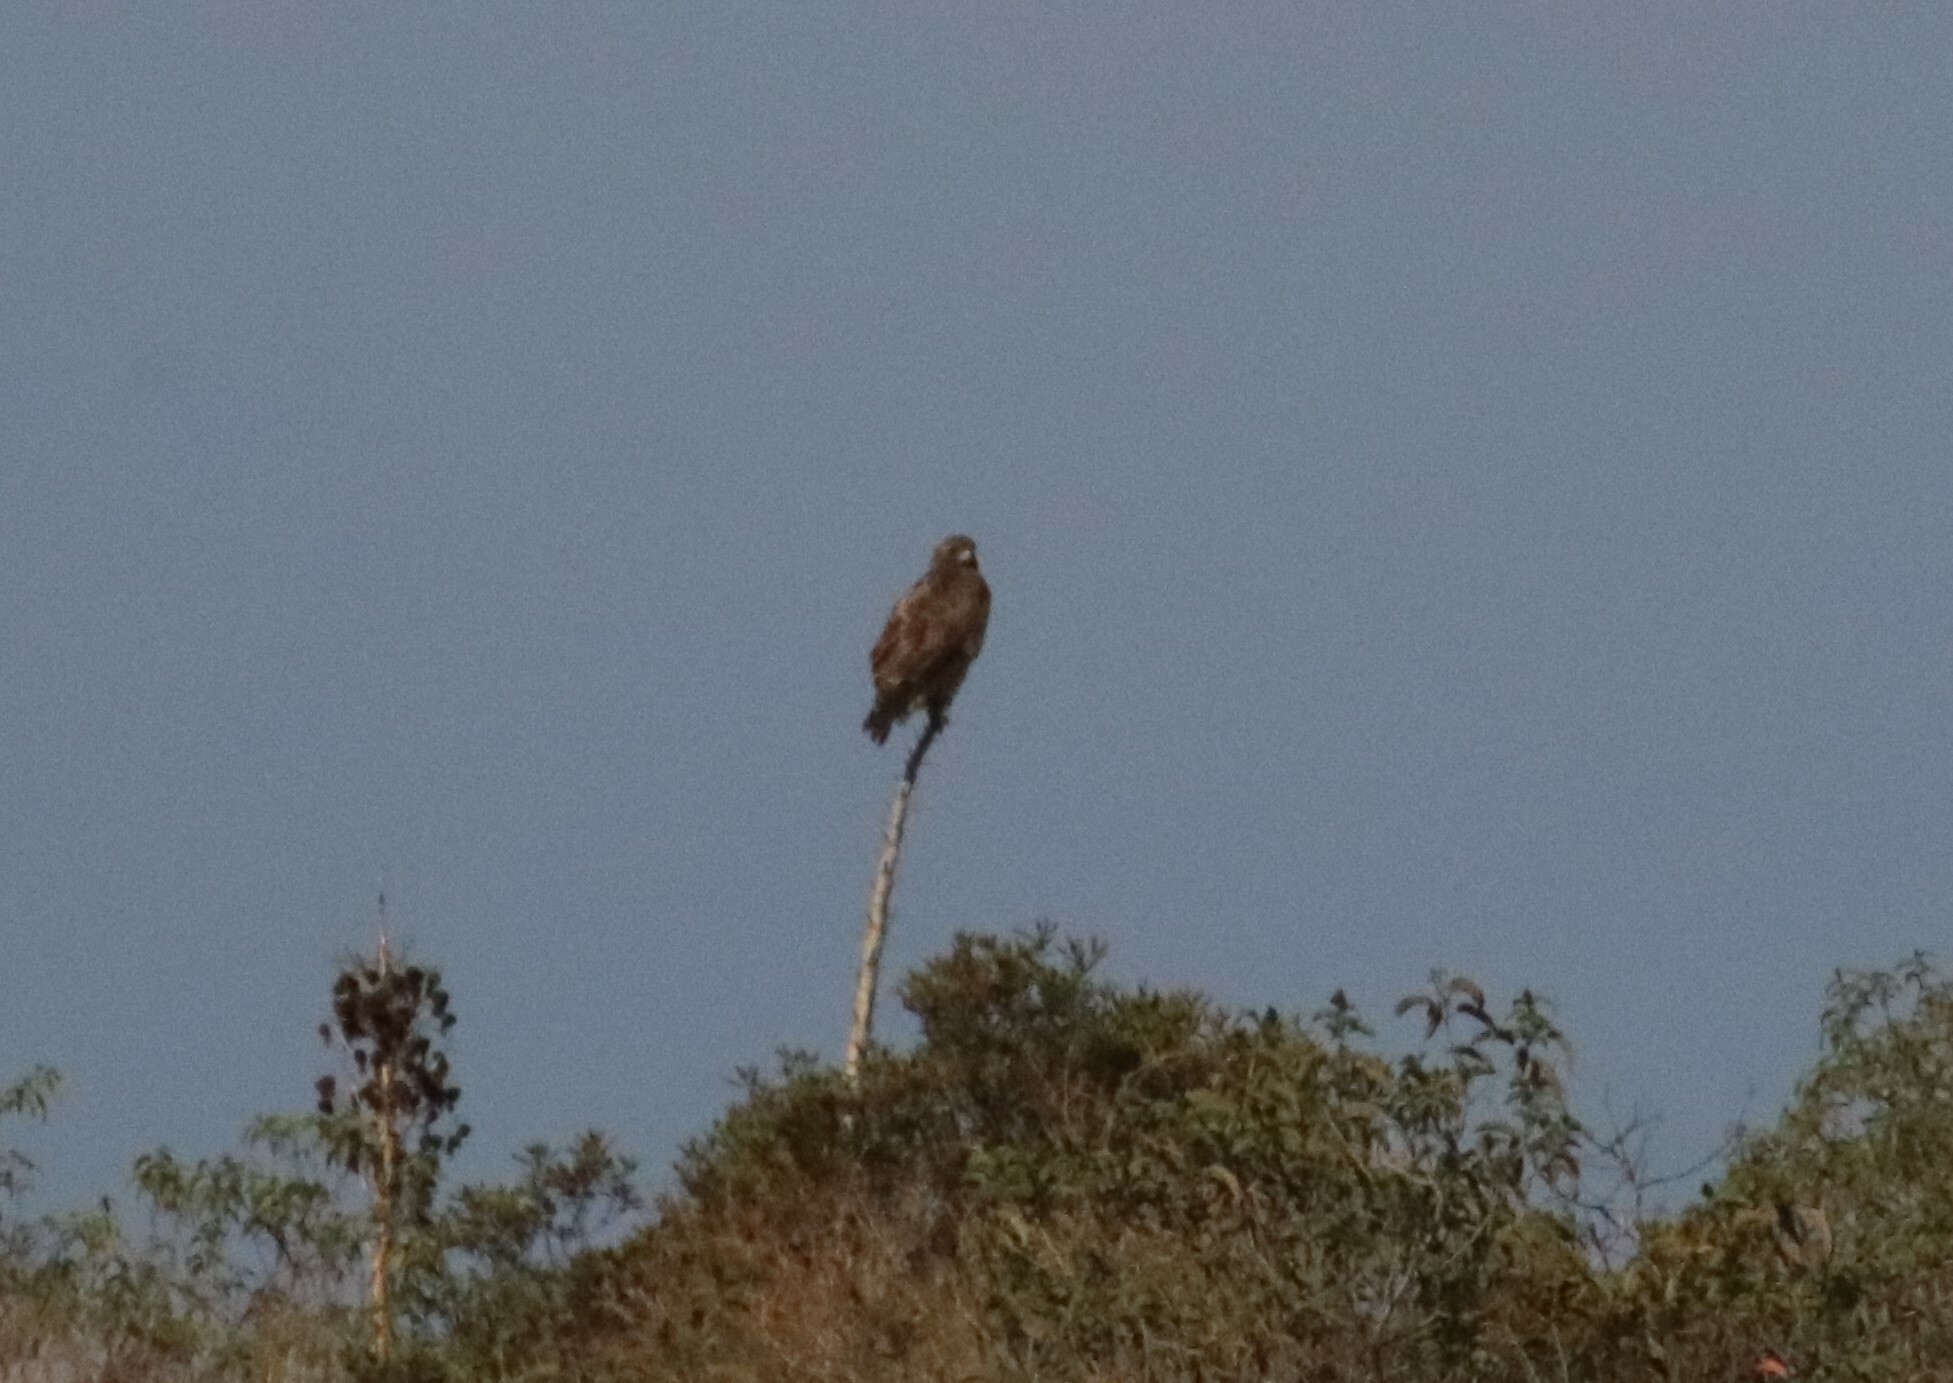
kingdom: Animalia
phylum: Chordata
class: Aves
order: Accipitriformes
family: Accipitridae
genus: Buteo
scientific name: Buteo jamaicensis
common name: Red-tailed hawk
